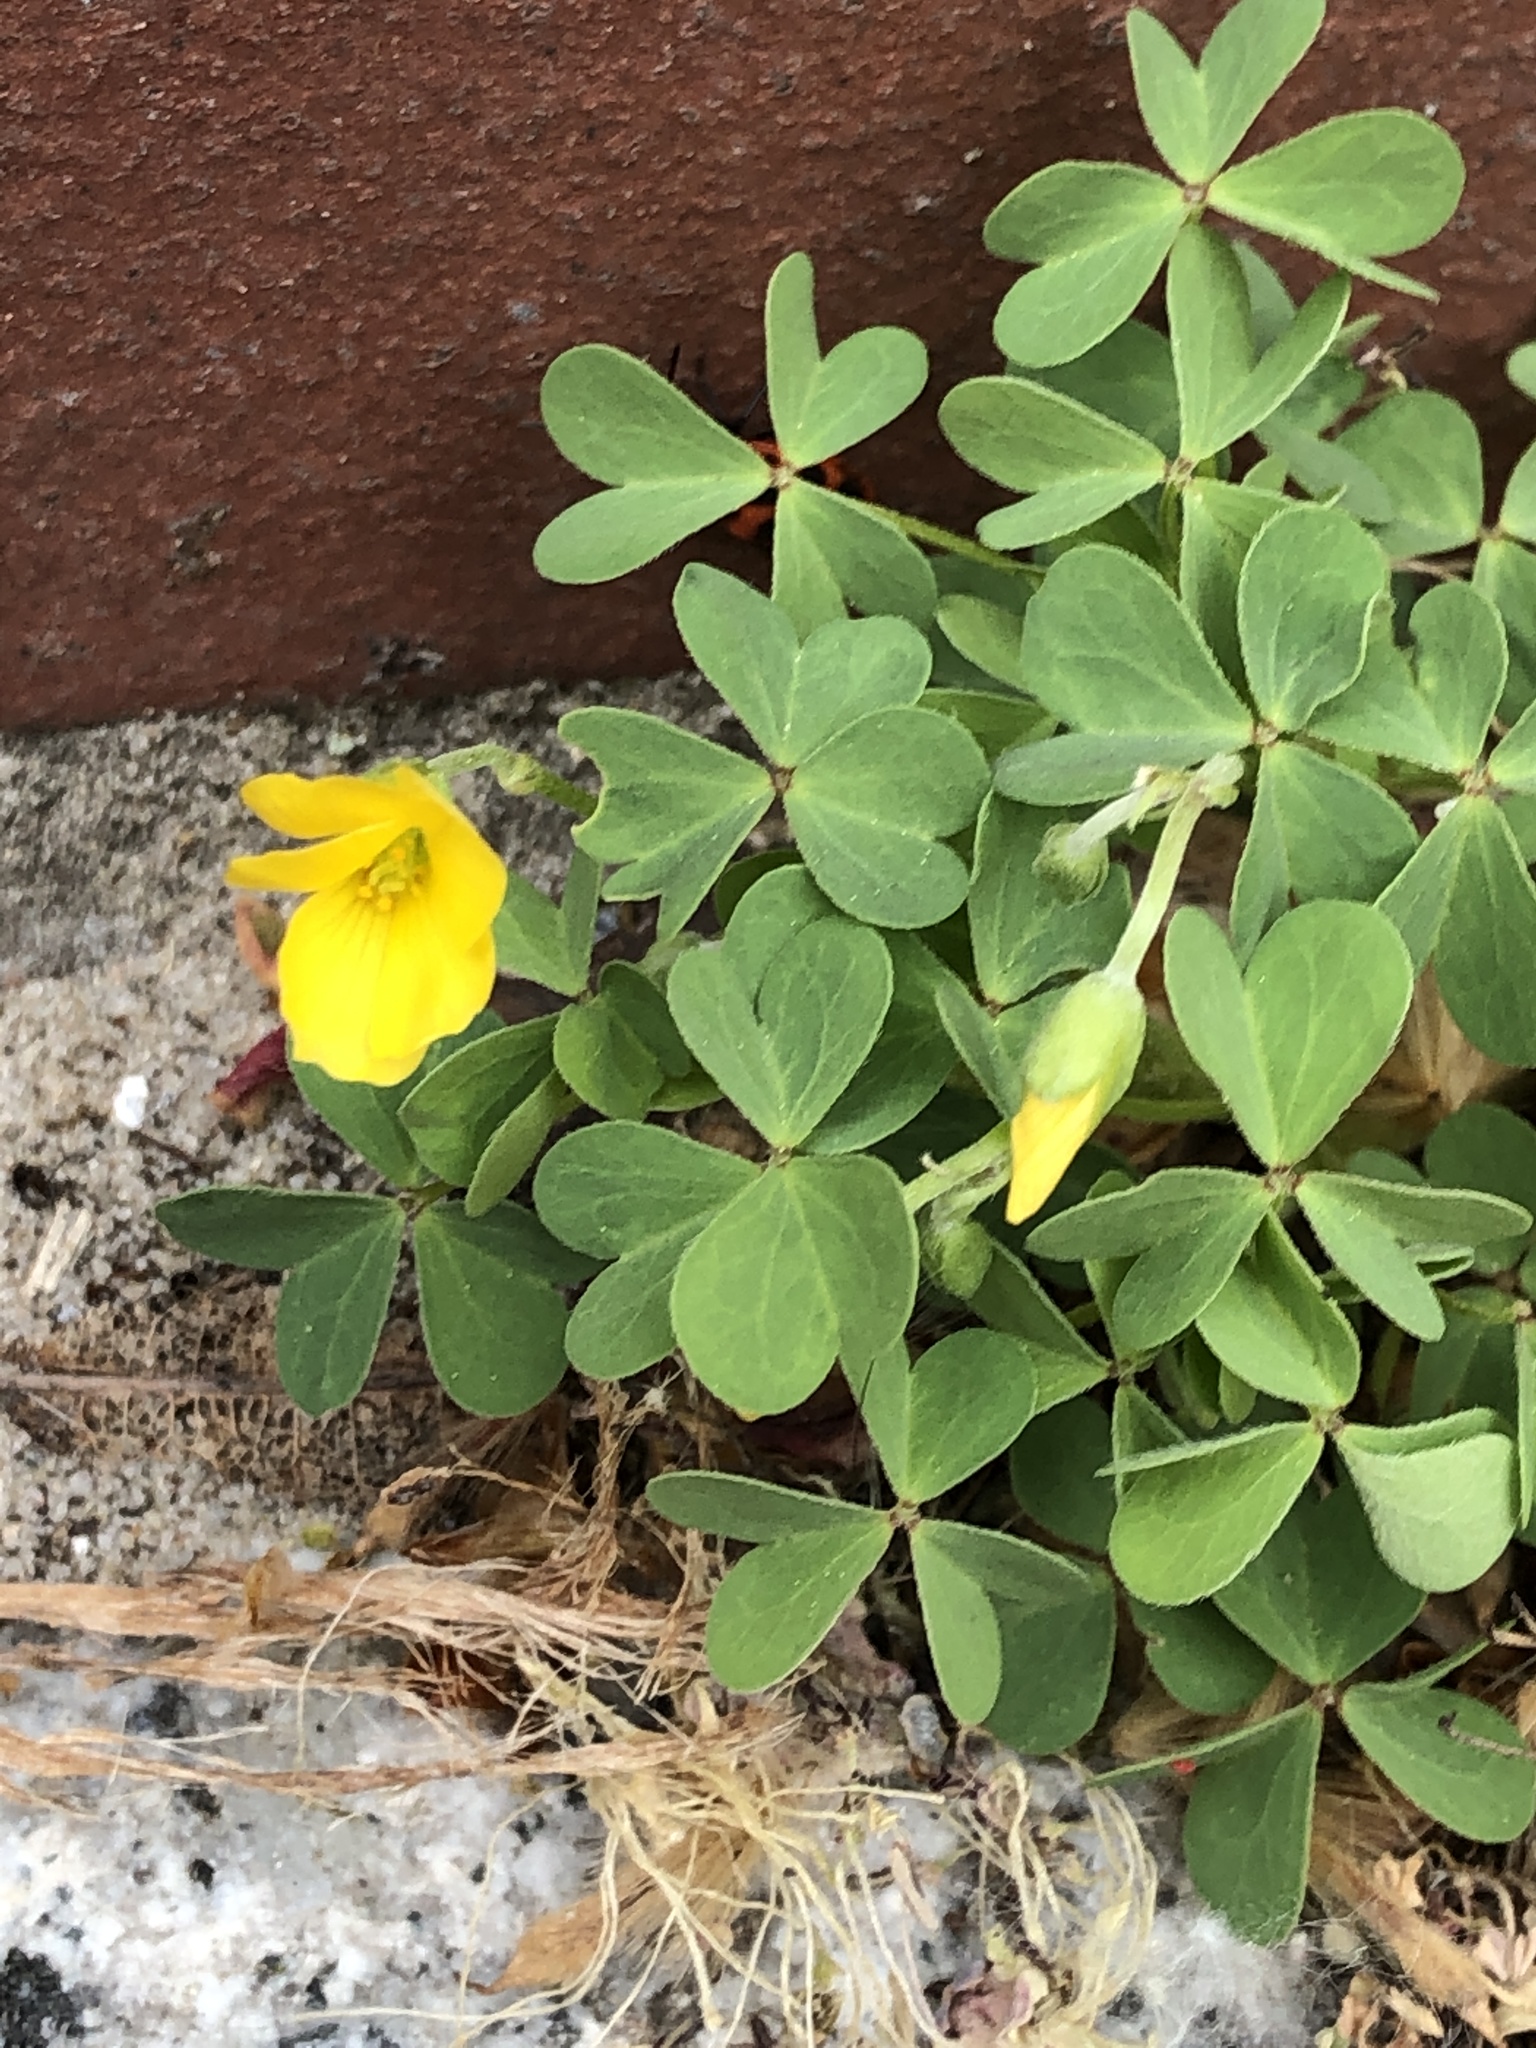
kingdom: Plantae
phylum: Tracheophyta
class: Magnoliopsida
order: Oxalidales
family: Oxalidaceae
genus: Oxalis
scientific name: Oxalis corniculata
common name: Procumbent yellow-sorrel
